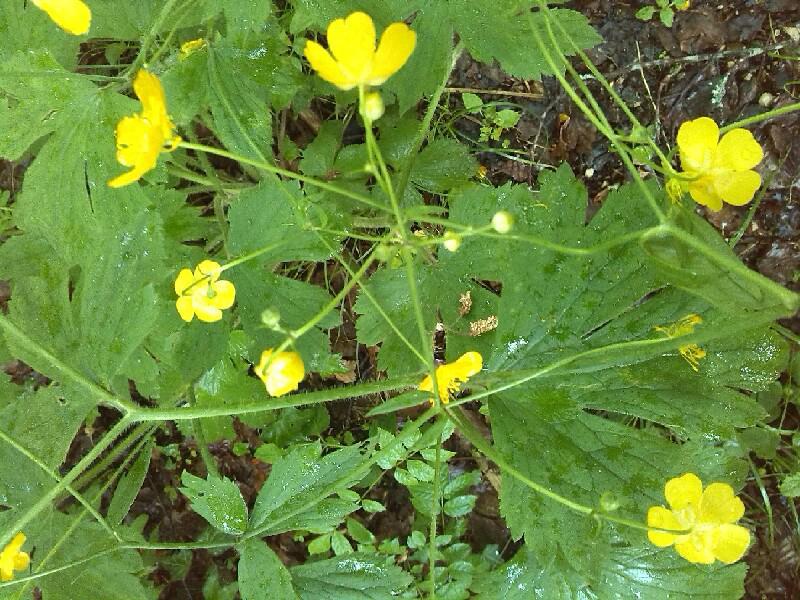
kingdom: Plantae
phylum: Tracheophyta
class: Magnoliopsida
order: Ranunculales
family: Ranunculaceae
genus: Ranunculus
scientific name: Ranunculus lanuginosus
